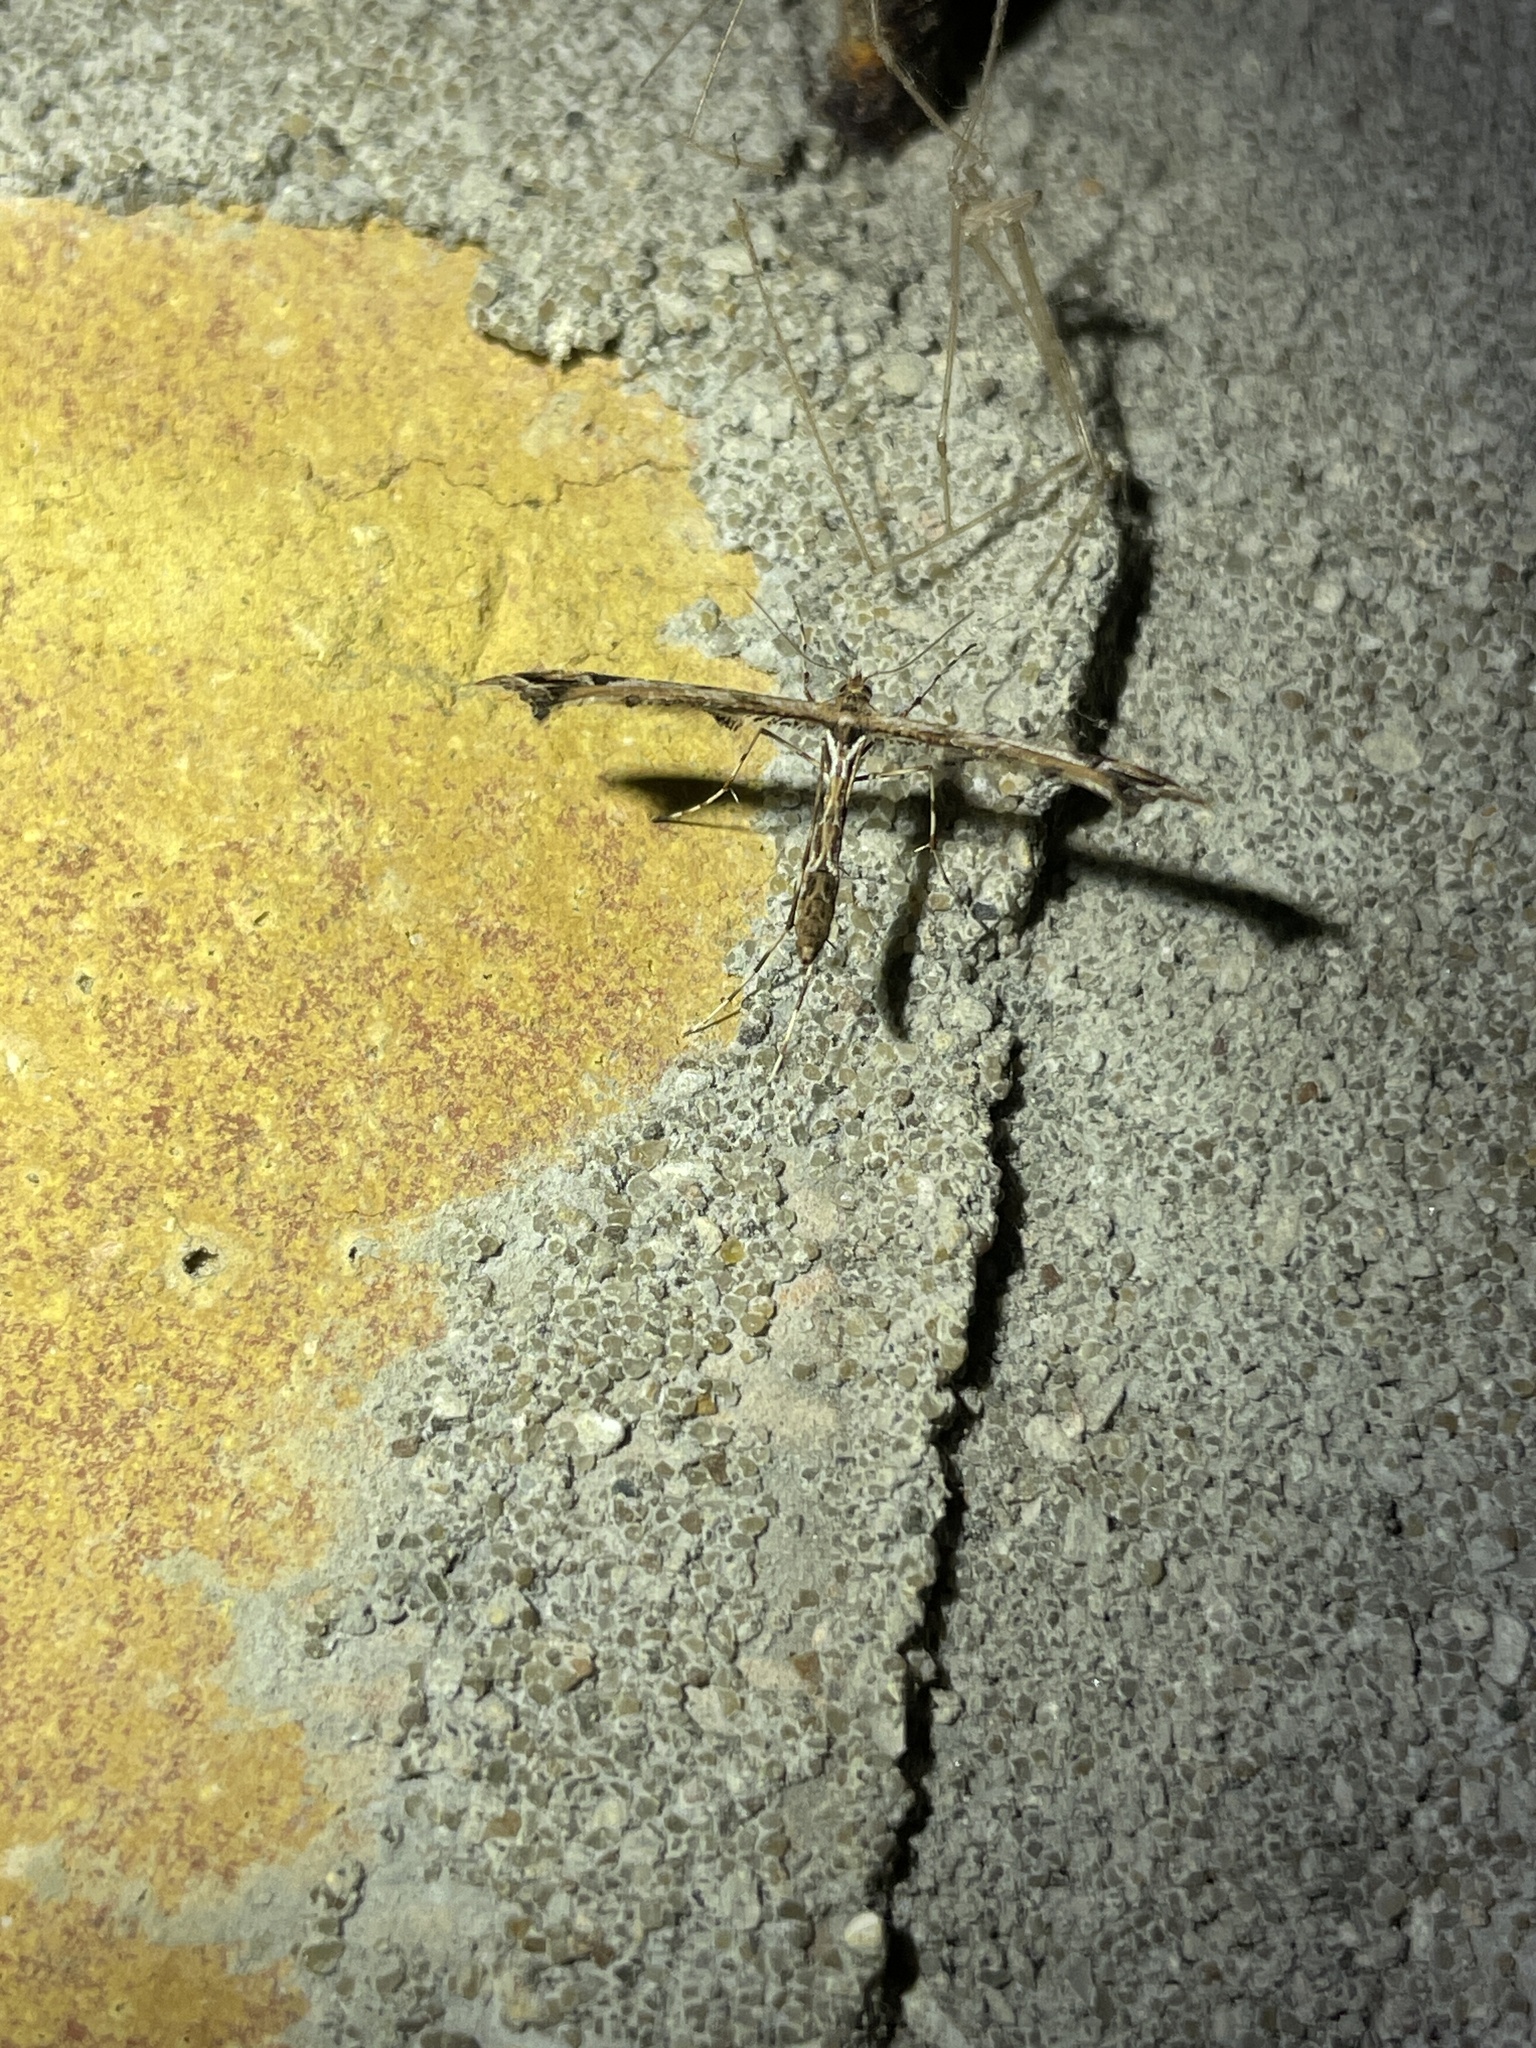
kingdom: Animalia
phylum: Arthropoda
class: Insecta
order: Lepidoptera
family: Pterophoridae
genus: Amblyptilia
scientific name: Amblyptilia acanthadactyla
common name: Beautiful plume
